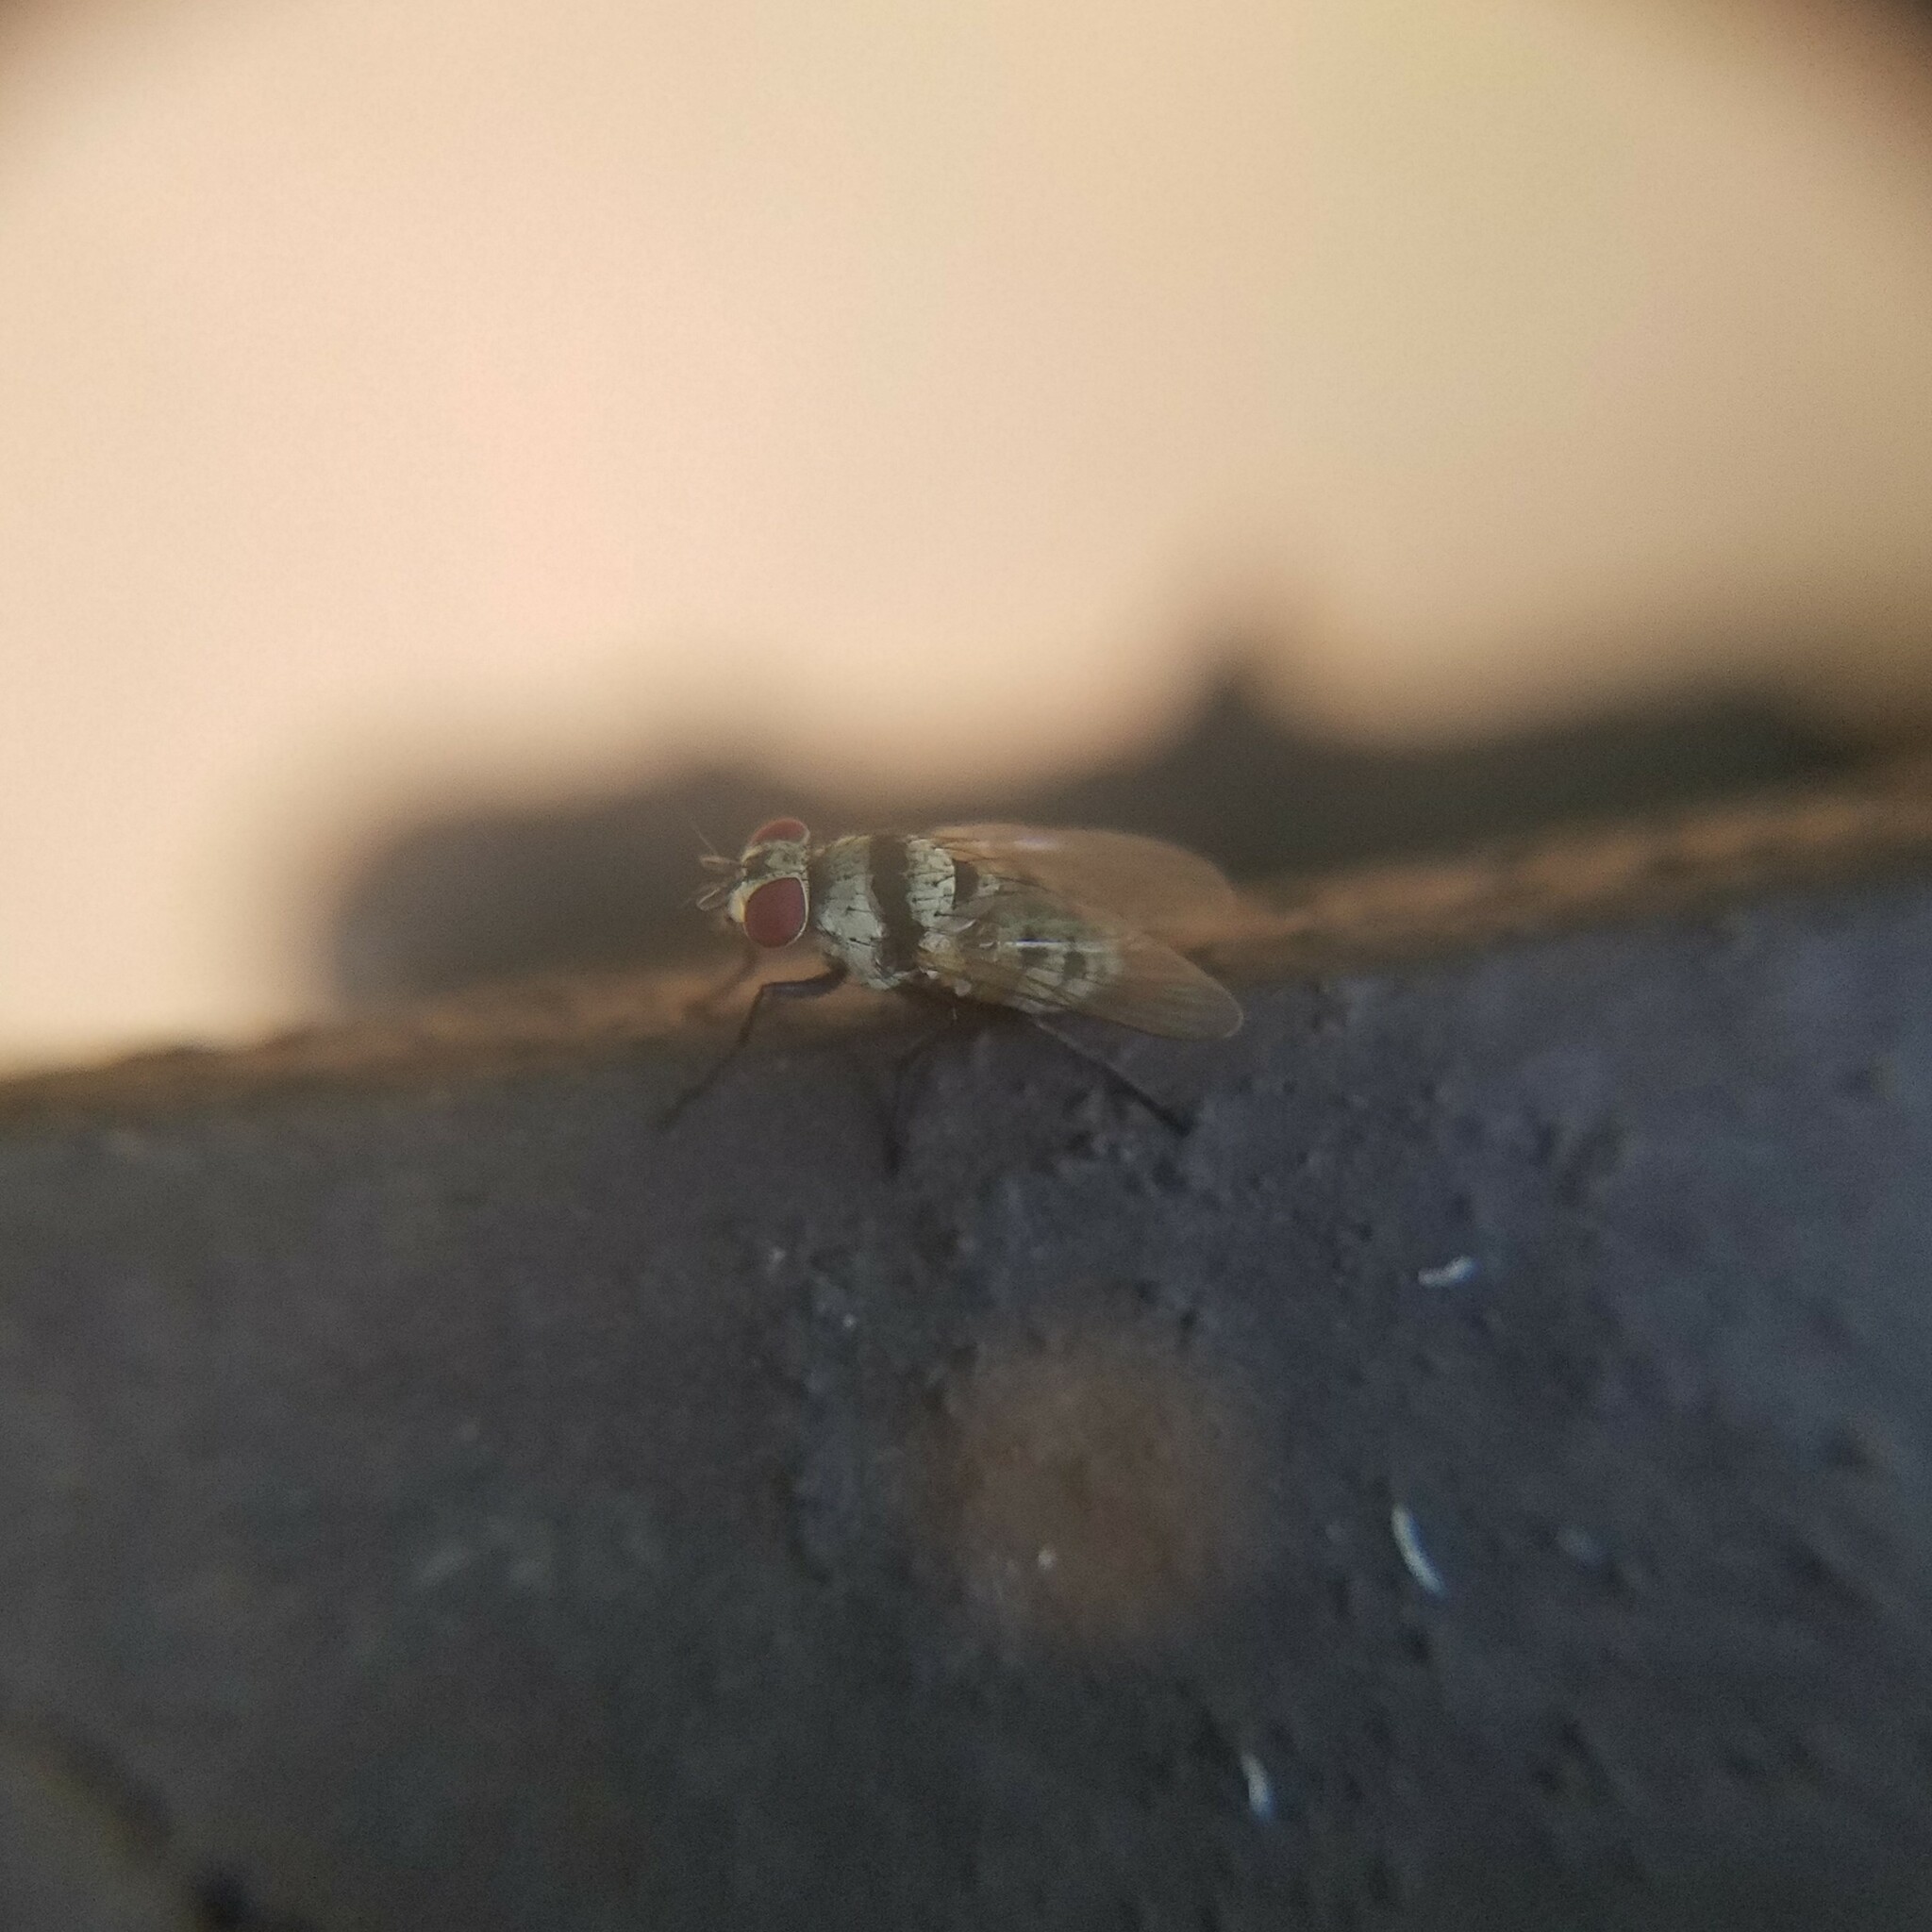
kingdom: Animalia
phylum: Arthropoda
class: Insecta
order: Diptera
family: Anthomyiidae
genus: Anthomyia
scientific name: Anthomyia illocata
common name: Fly
